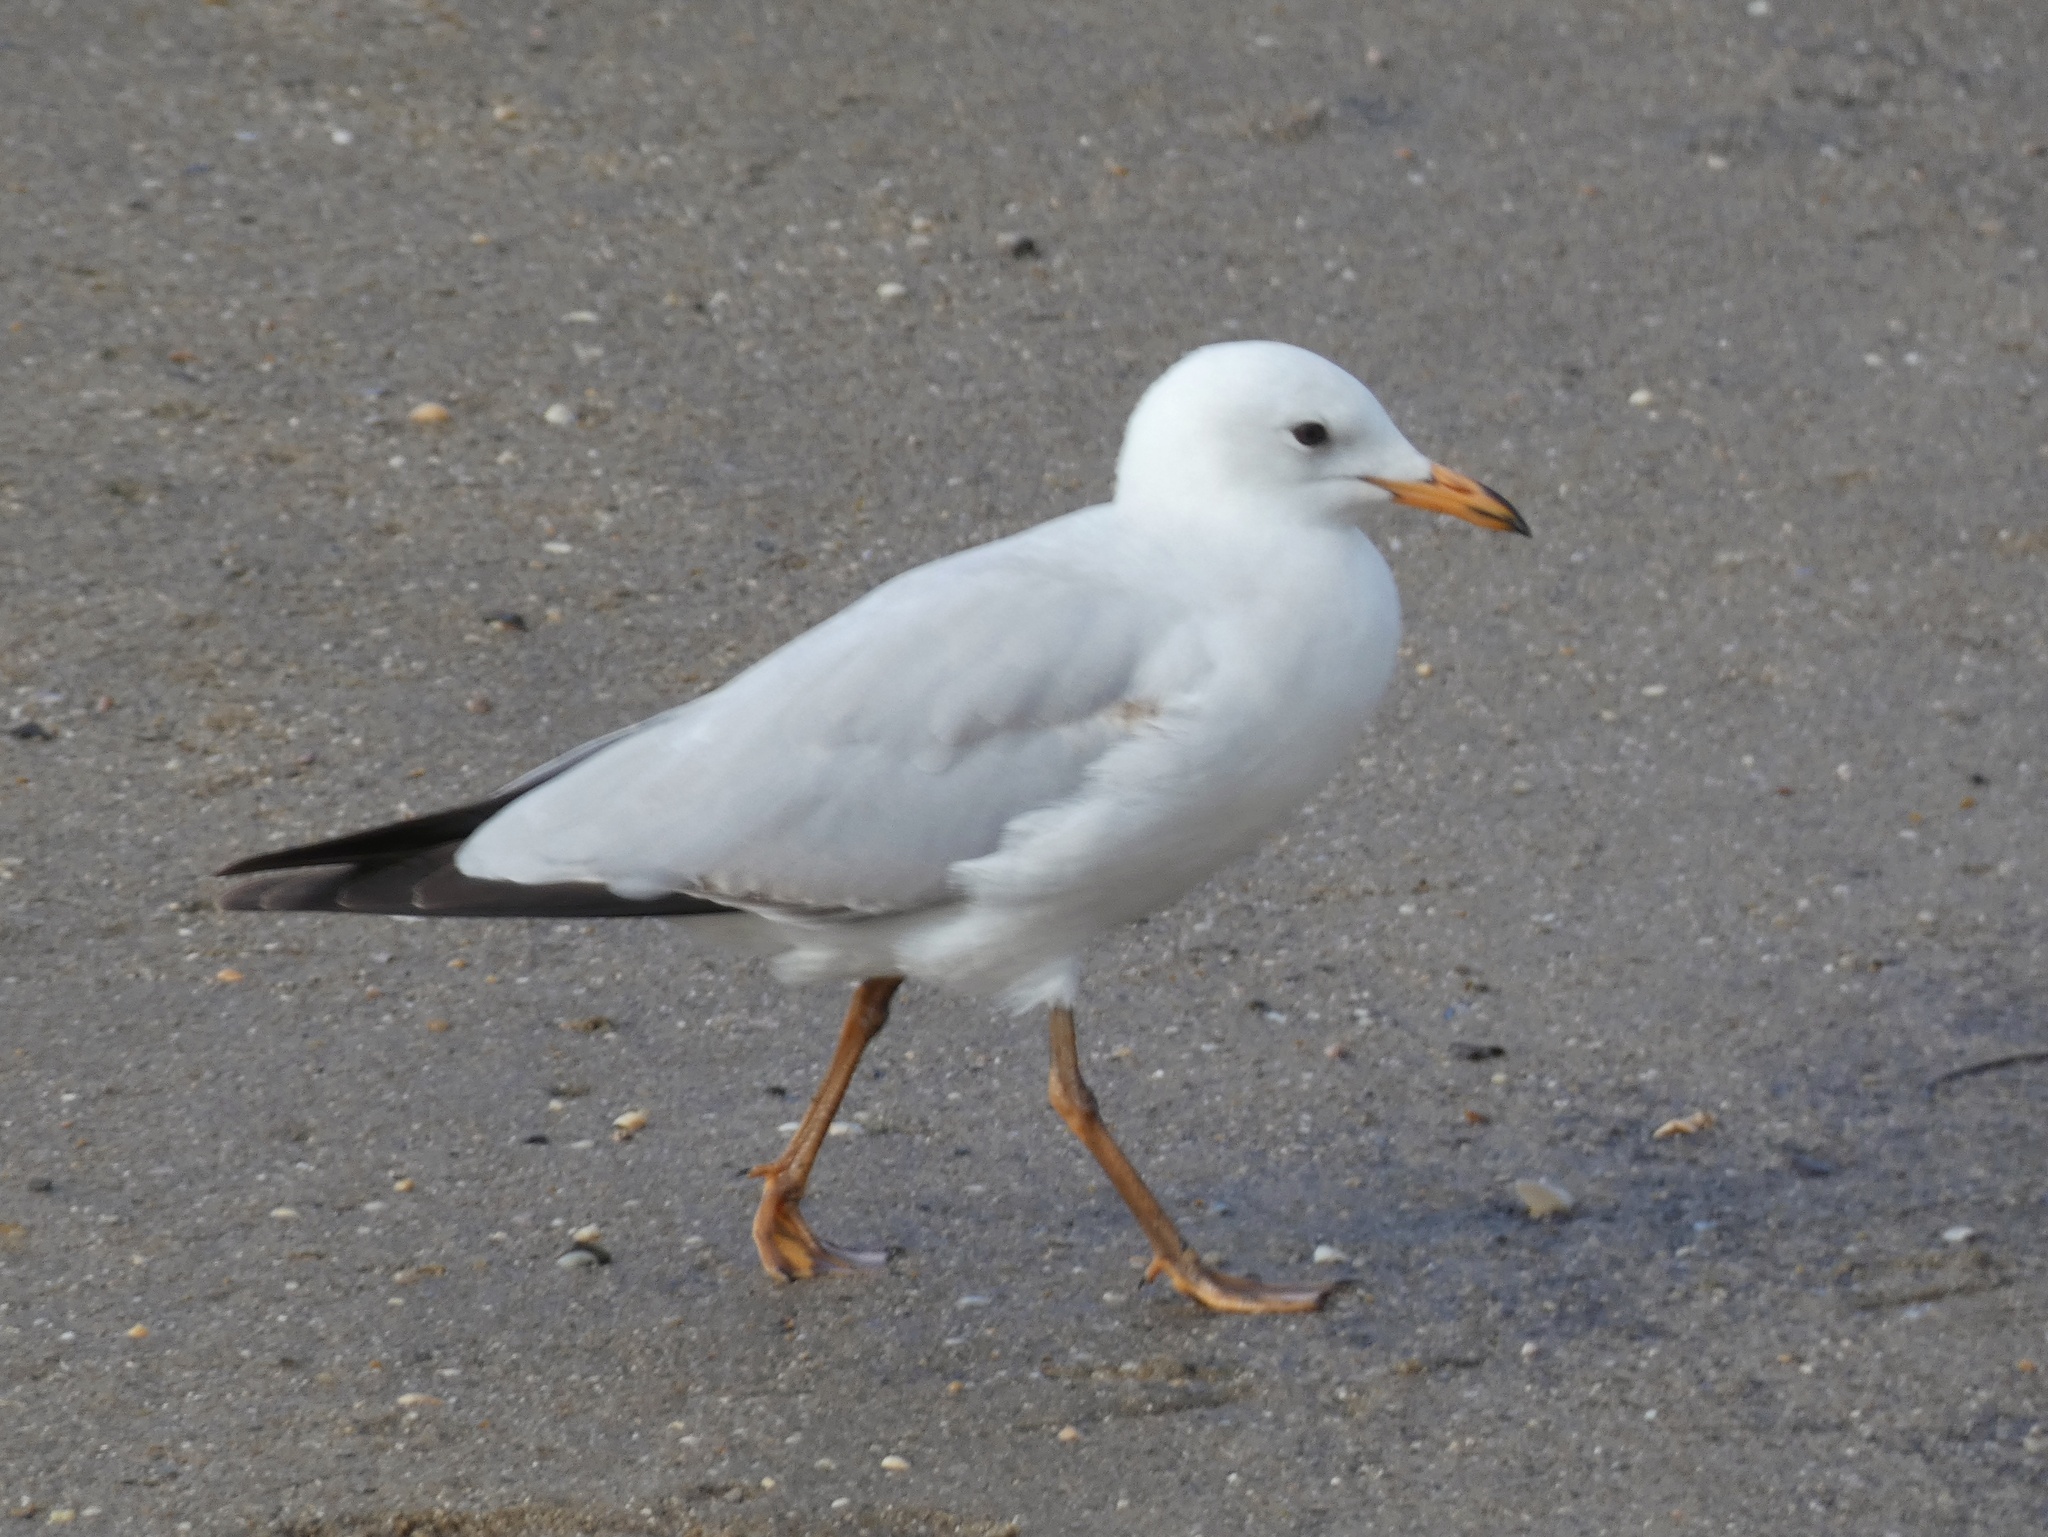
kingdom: Animalia
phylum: Chordata
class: Aves
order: Charadriiformes
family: Laridae
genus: Chroicocephalus
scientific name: Chroicocephalus novaehollandiae
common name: Silver gull
